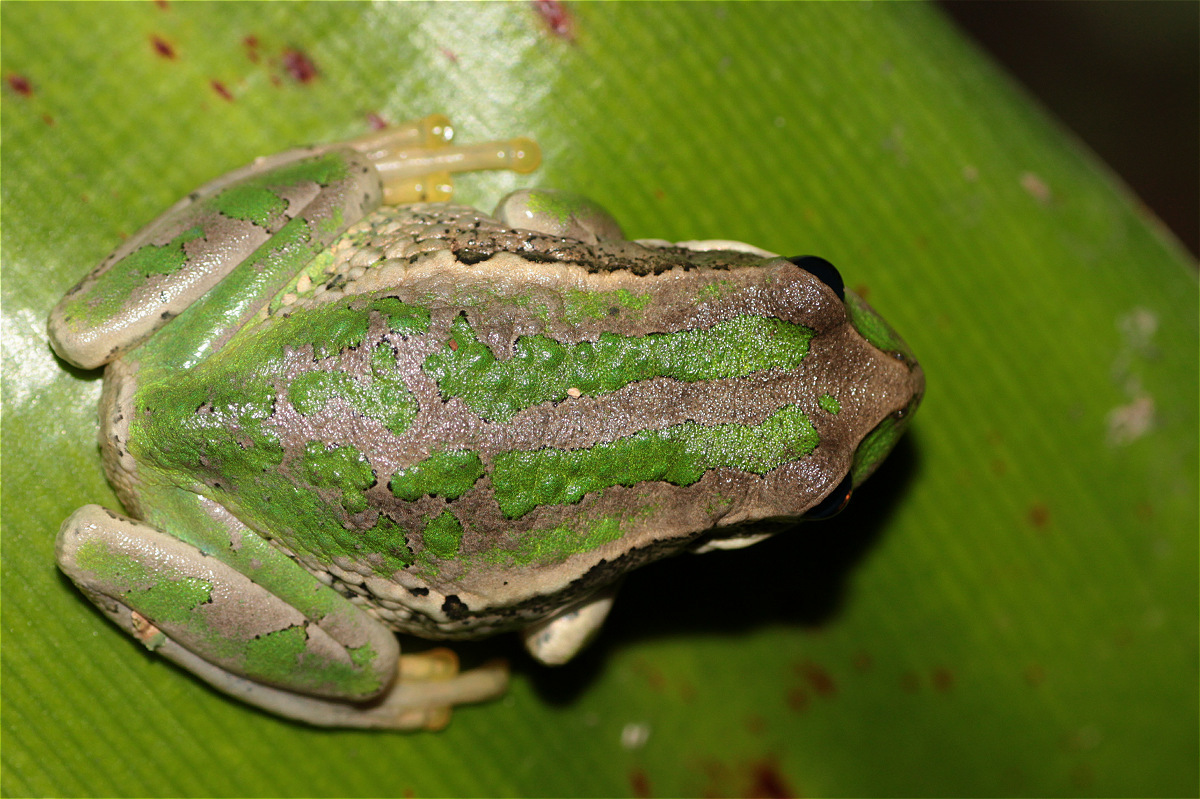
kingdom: Animalia
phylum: Chordata
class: Amphibia
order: Anura
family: Hemiphractidae
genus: Gastrotheca
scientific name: Gastrotheca cuencana
